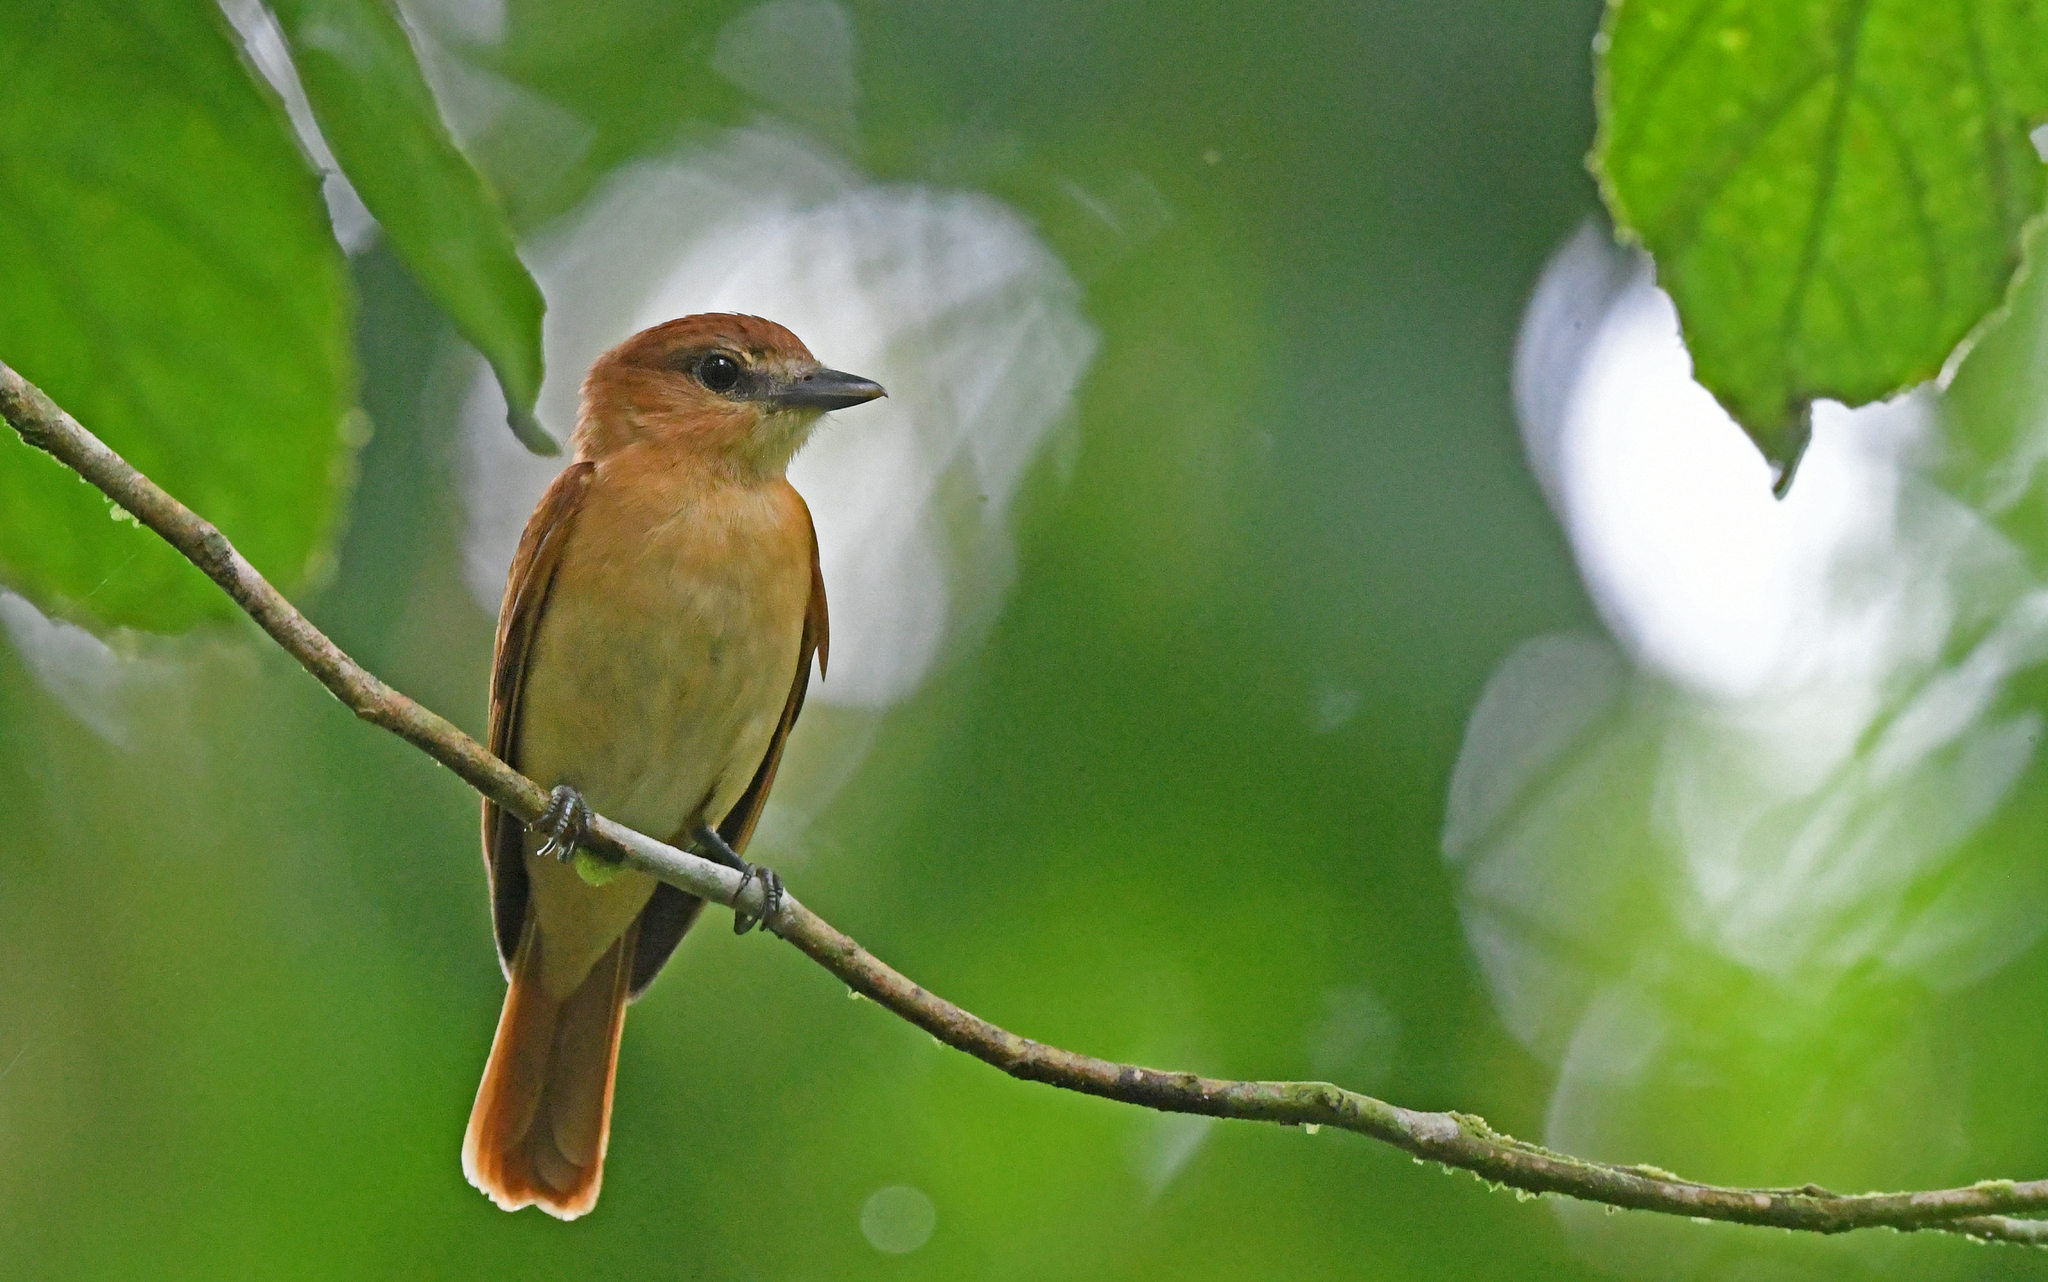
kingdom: Animalia
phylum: Chordata
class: Aves
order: Passeriformes
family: Cotingidae
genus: Pachyramphus
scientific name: Pachyramphus cinnamomeus
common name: Cinnamon becard
